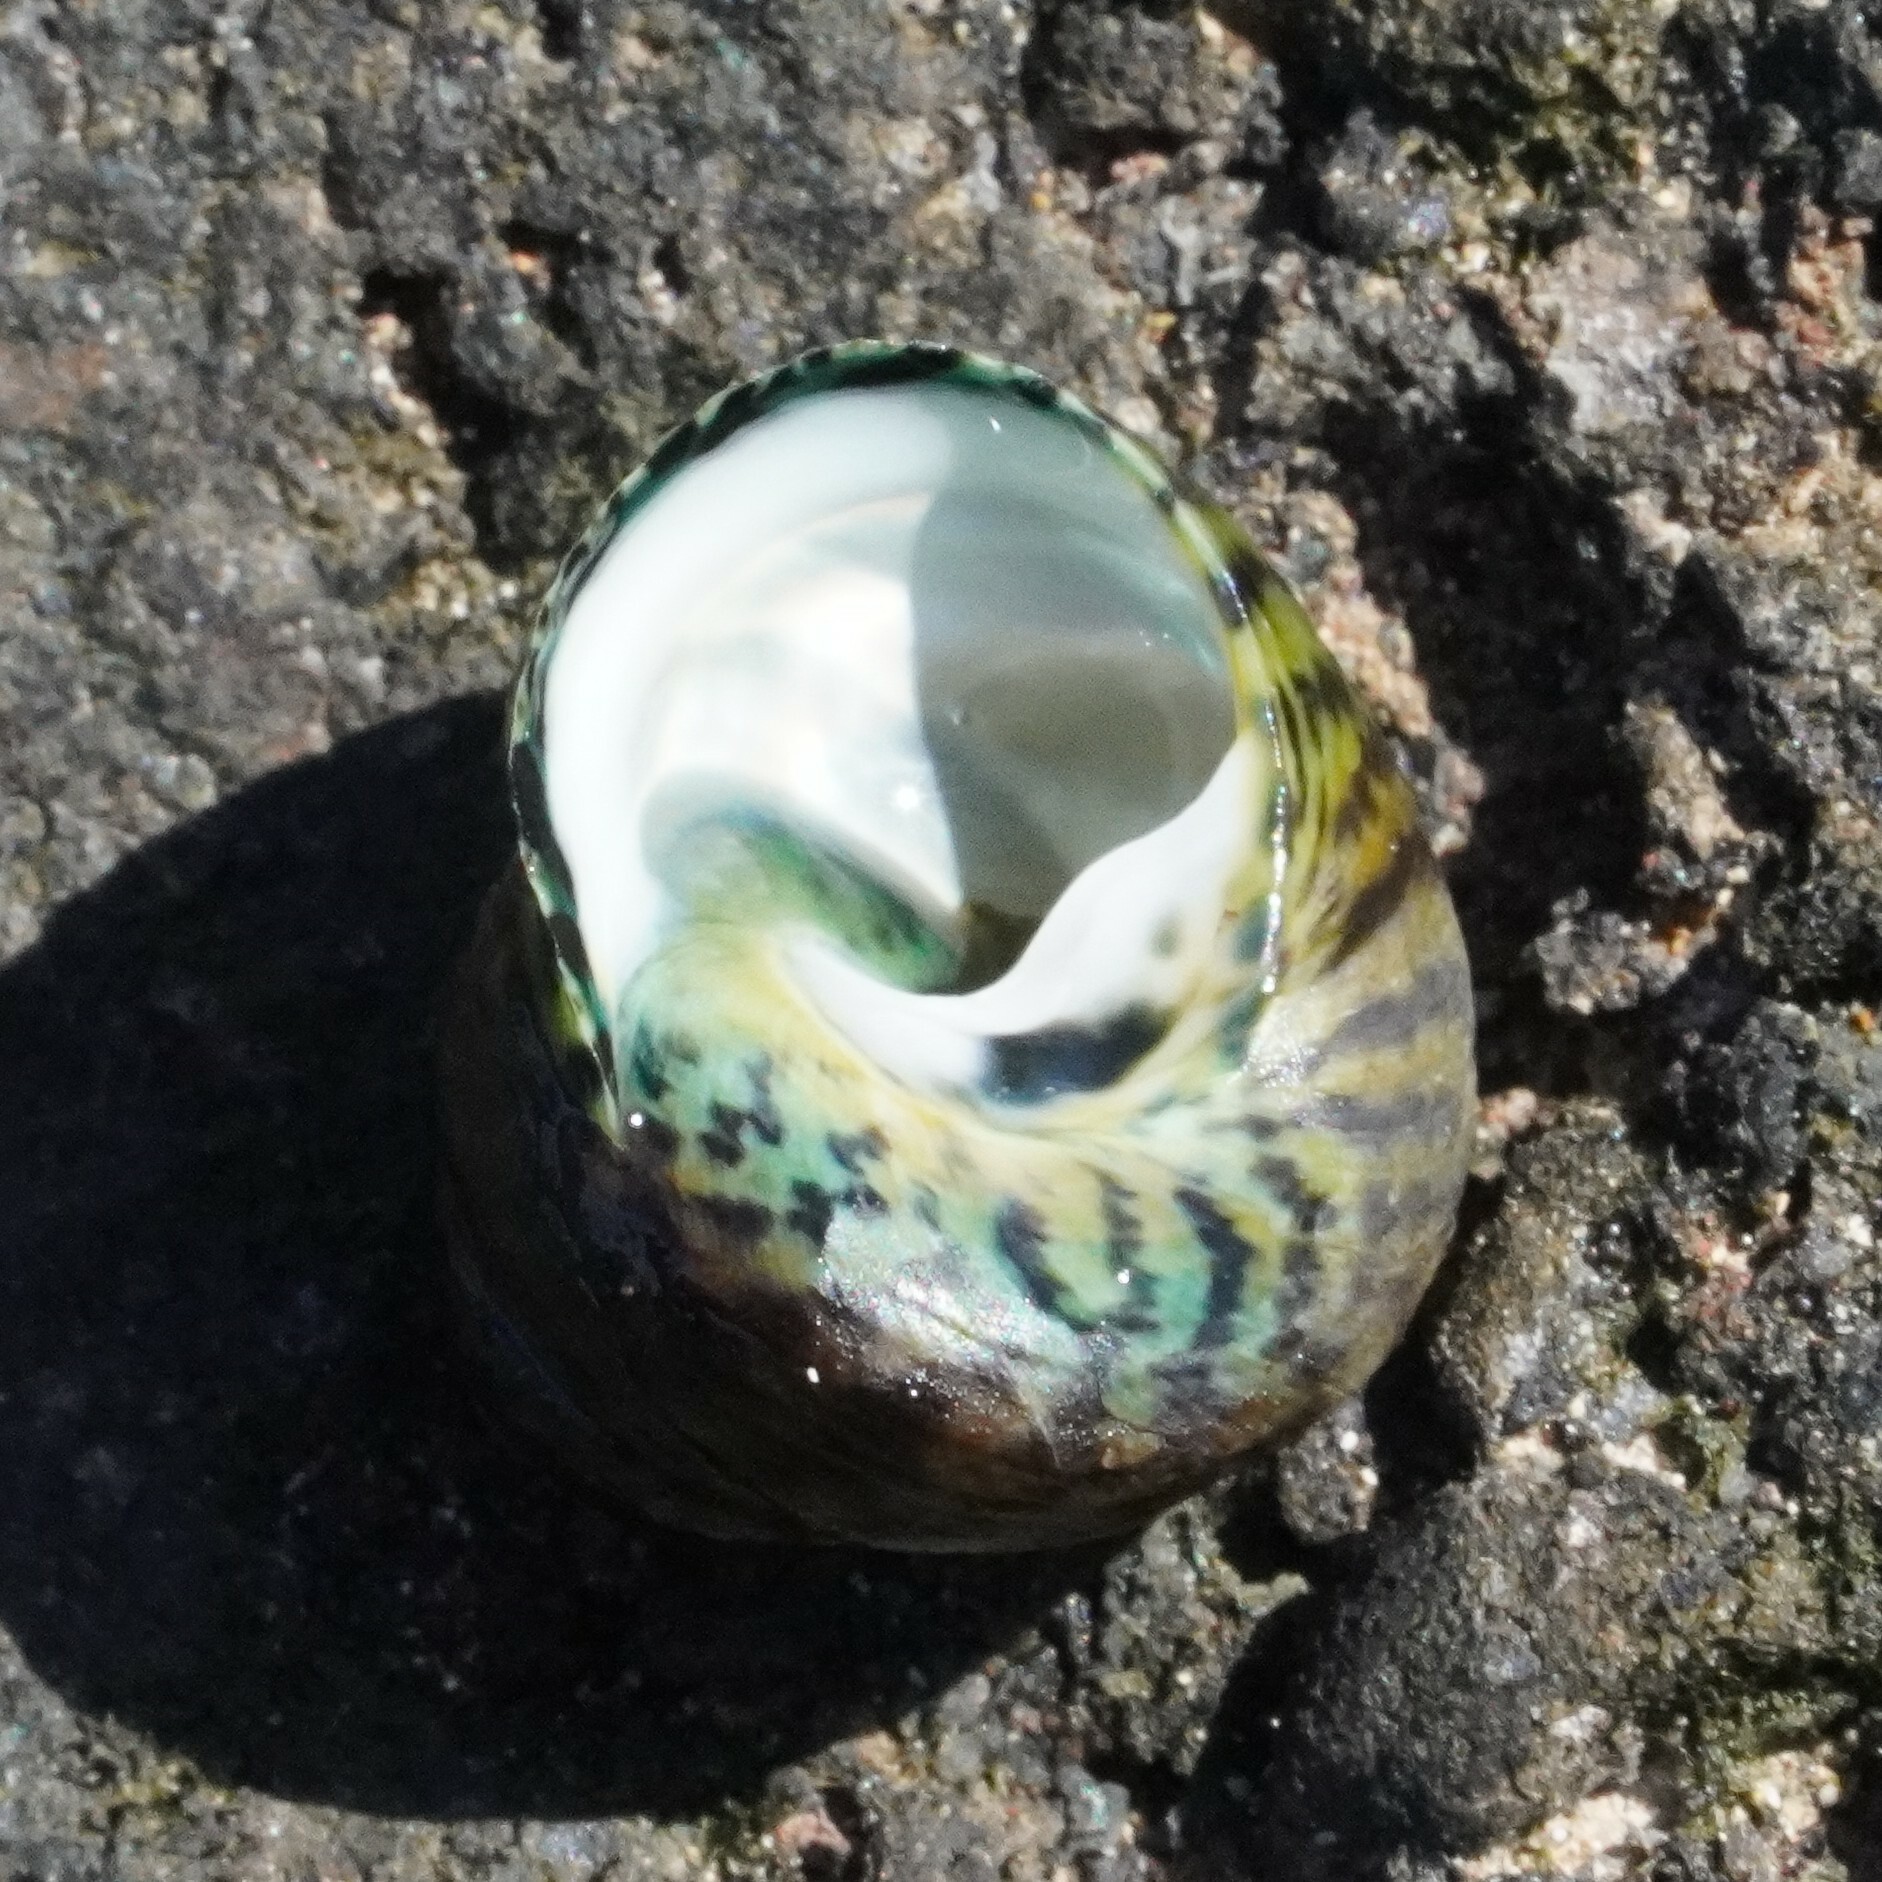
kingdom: Animalia
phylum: Mollusca
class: Gastropoda
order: Trochida
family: Trochidae
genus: Phorcus
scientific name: Phorcus sauciatus
